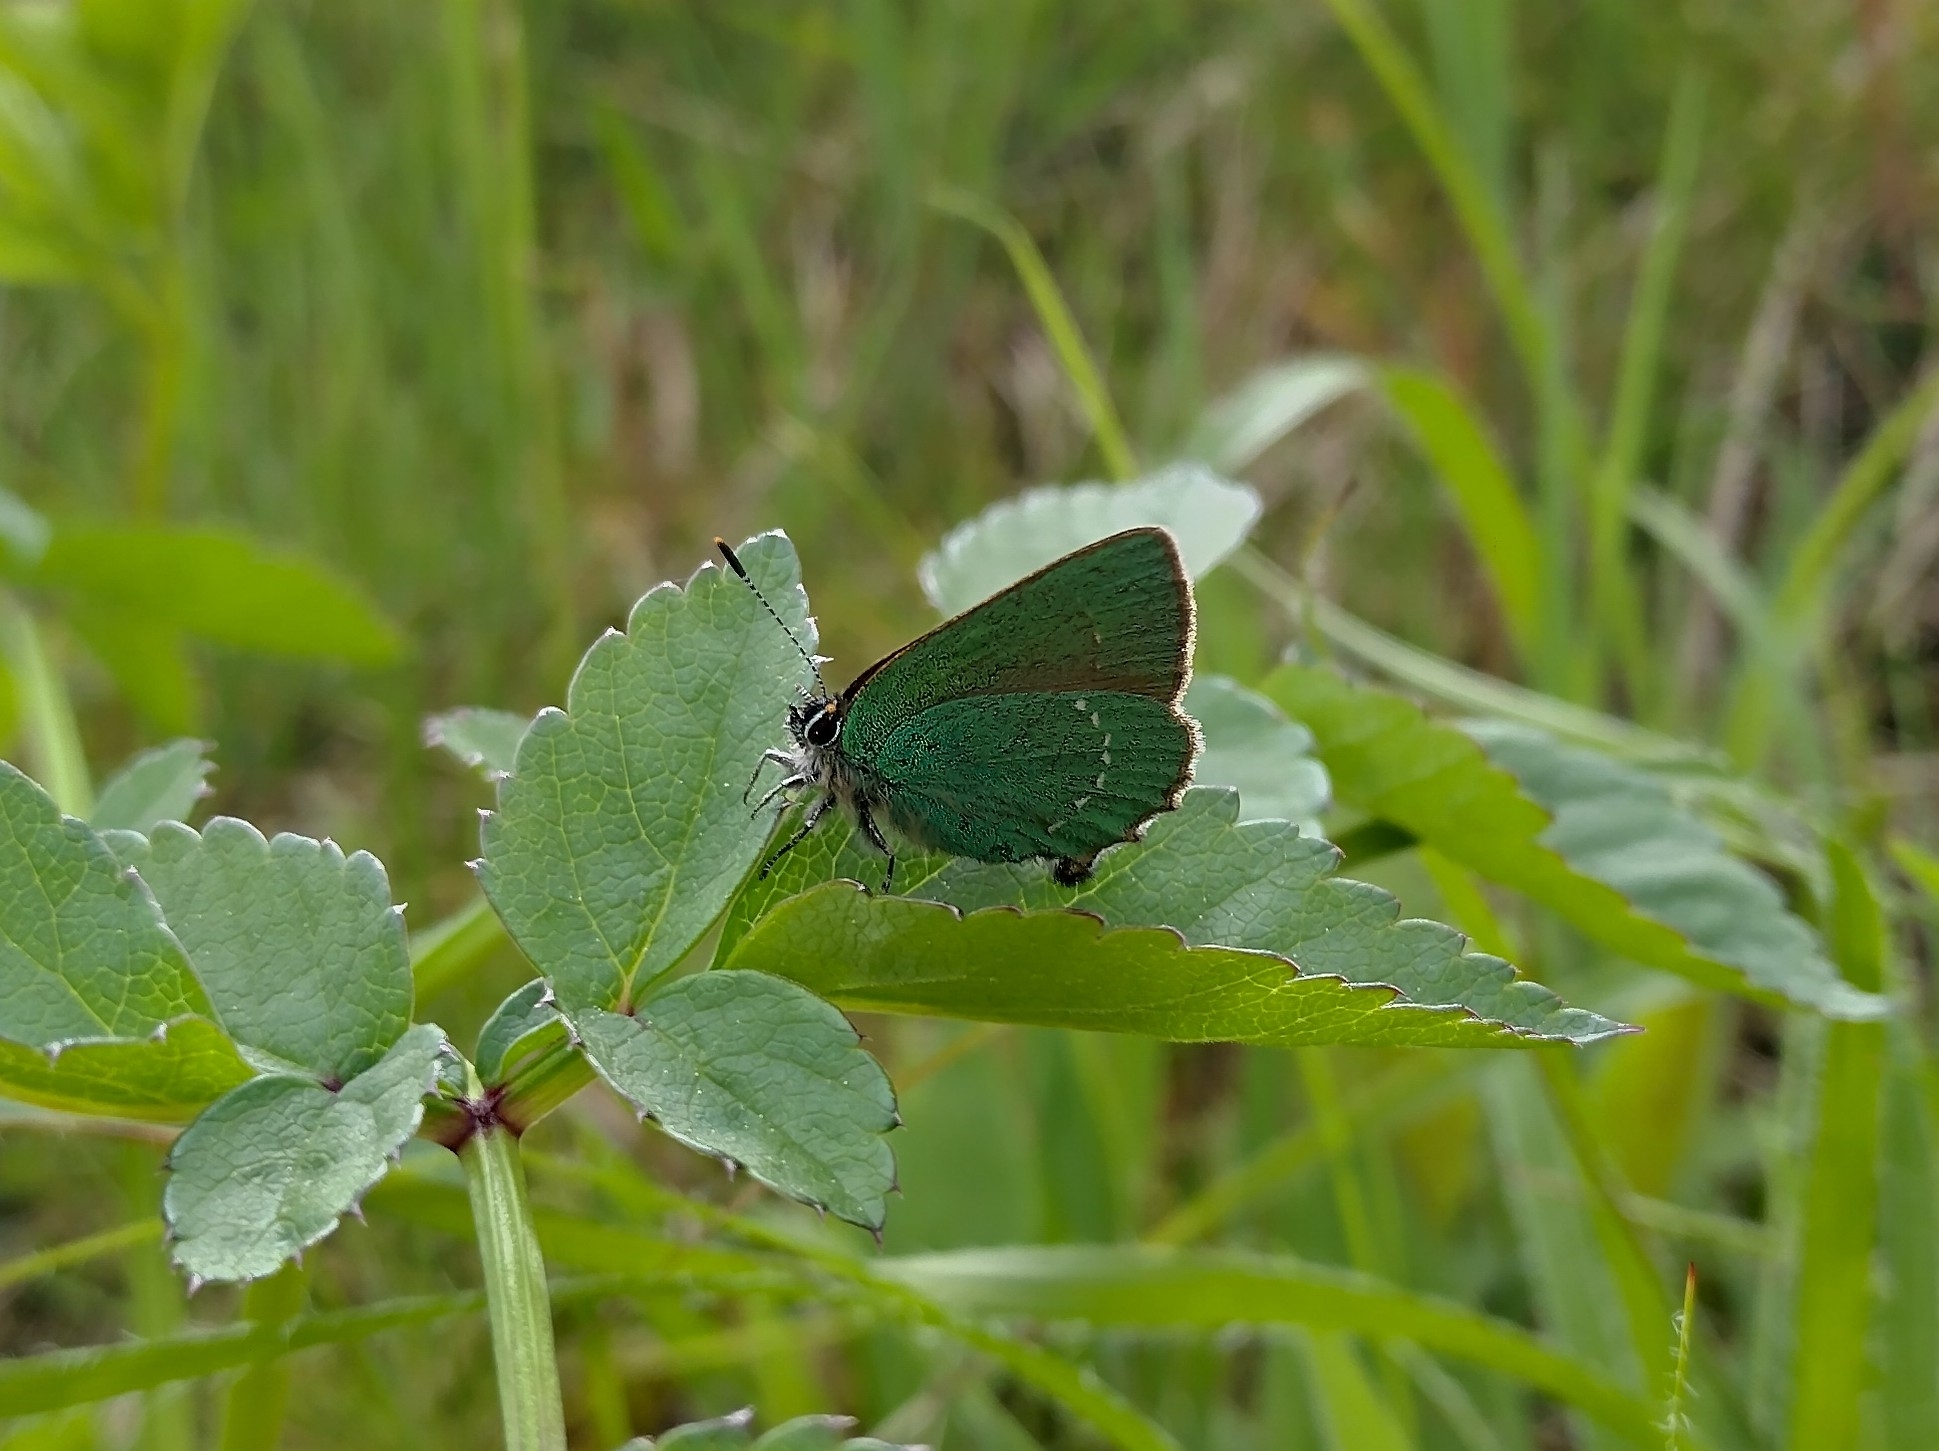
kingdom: Animalia
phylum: Arthropoda
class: Insecta
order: Lepidoptera
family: Lycaenidae
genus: Callophrys
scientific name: Callophrys rubi
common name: Green hairstreak
